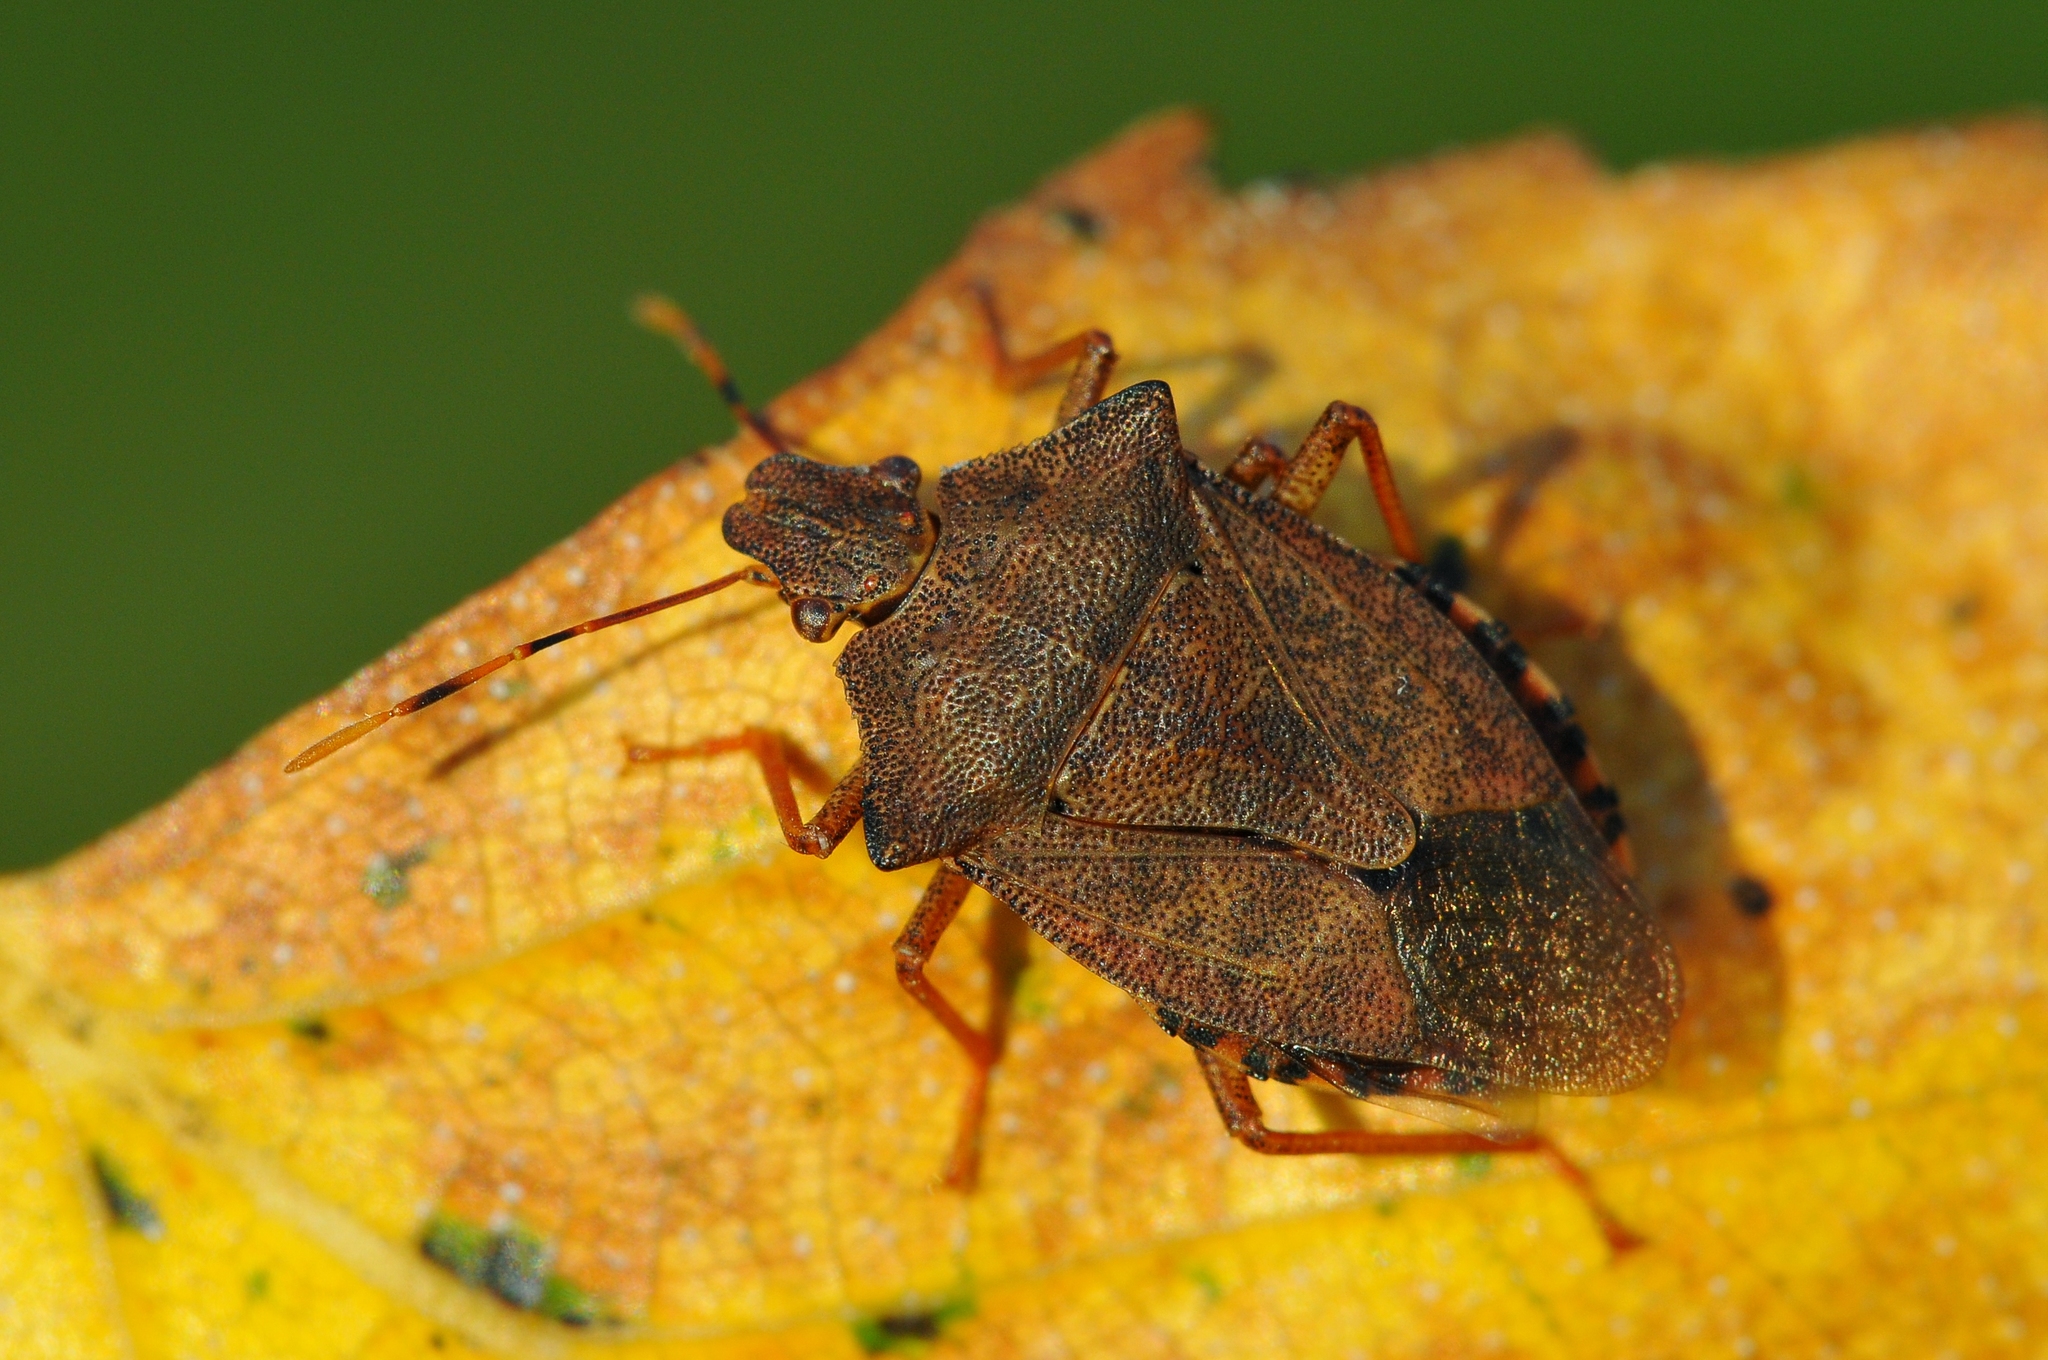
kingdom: Animalia
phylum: Arthropoda
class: Insecta
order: Hemiptera
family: Pentatomidae
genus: Arma
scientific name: Arma custos
